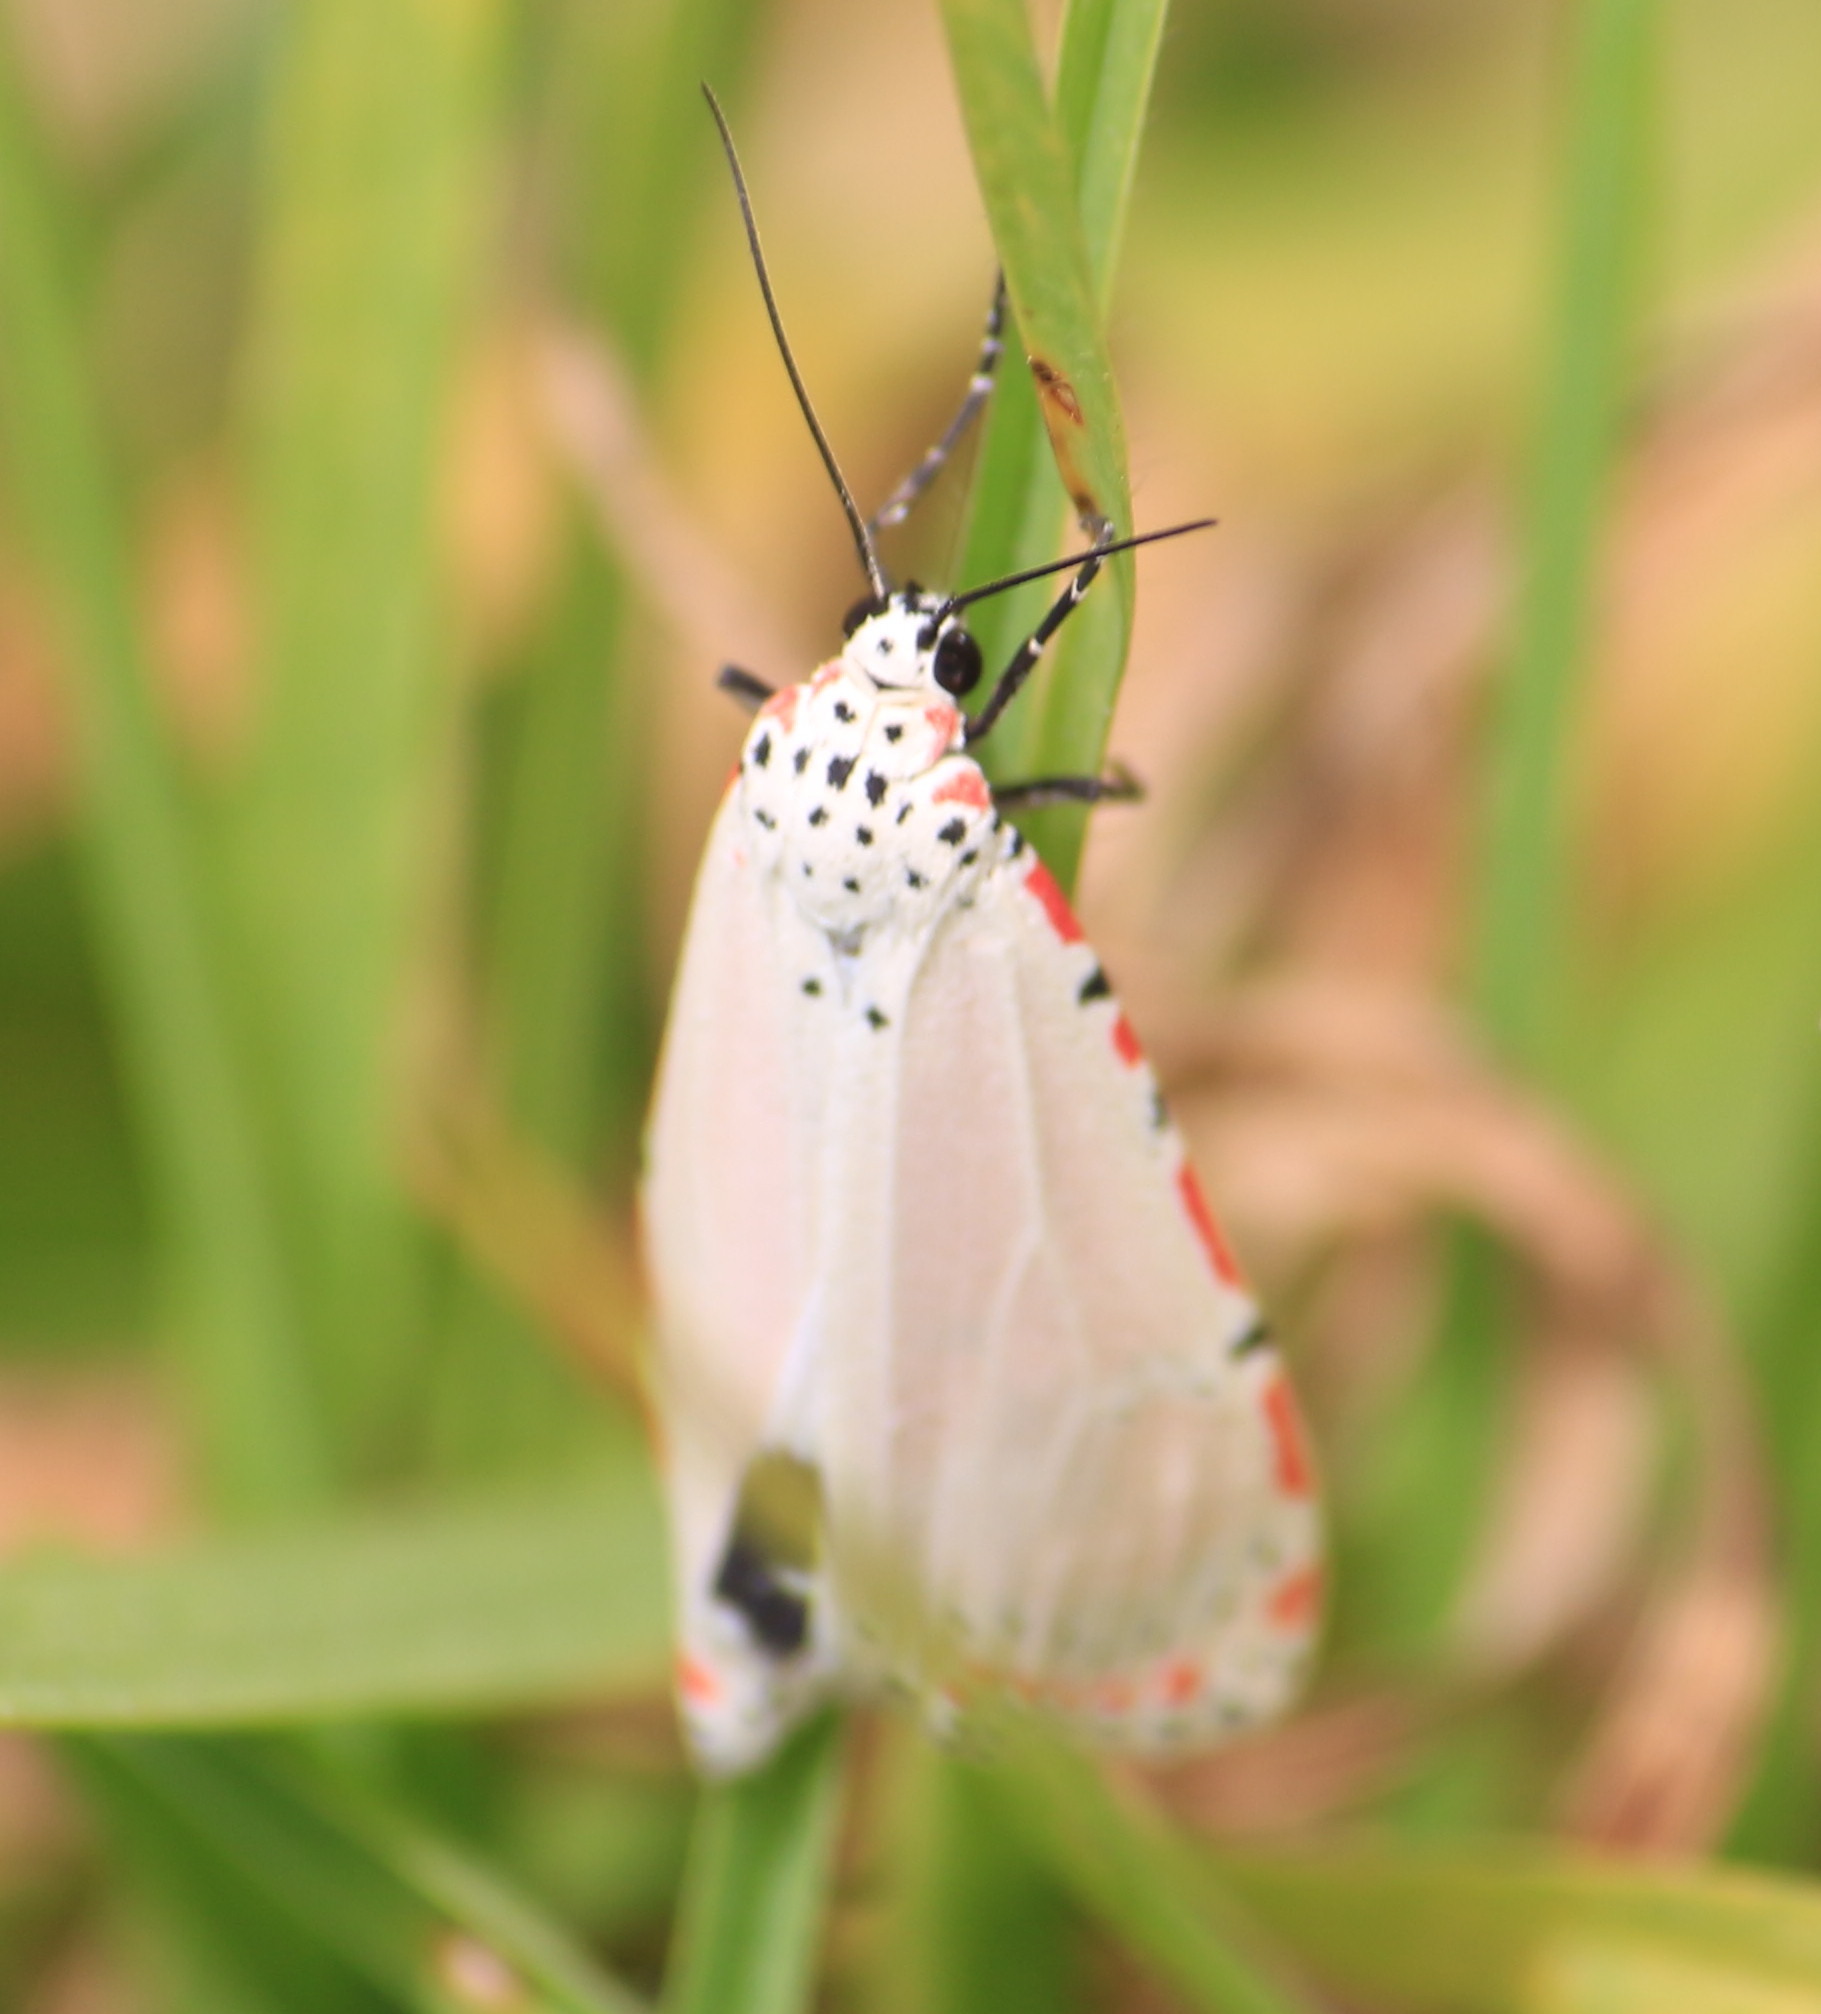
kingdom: Animalia
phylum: Arthropoda
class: Insecta
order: Lepidoptera
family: Erebidae
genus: Utetheisa
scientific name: Utetheisa ornatrix
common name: Beautiful utetheisa
